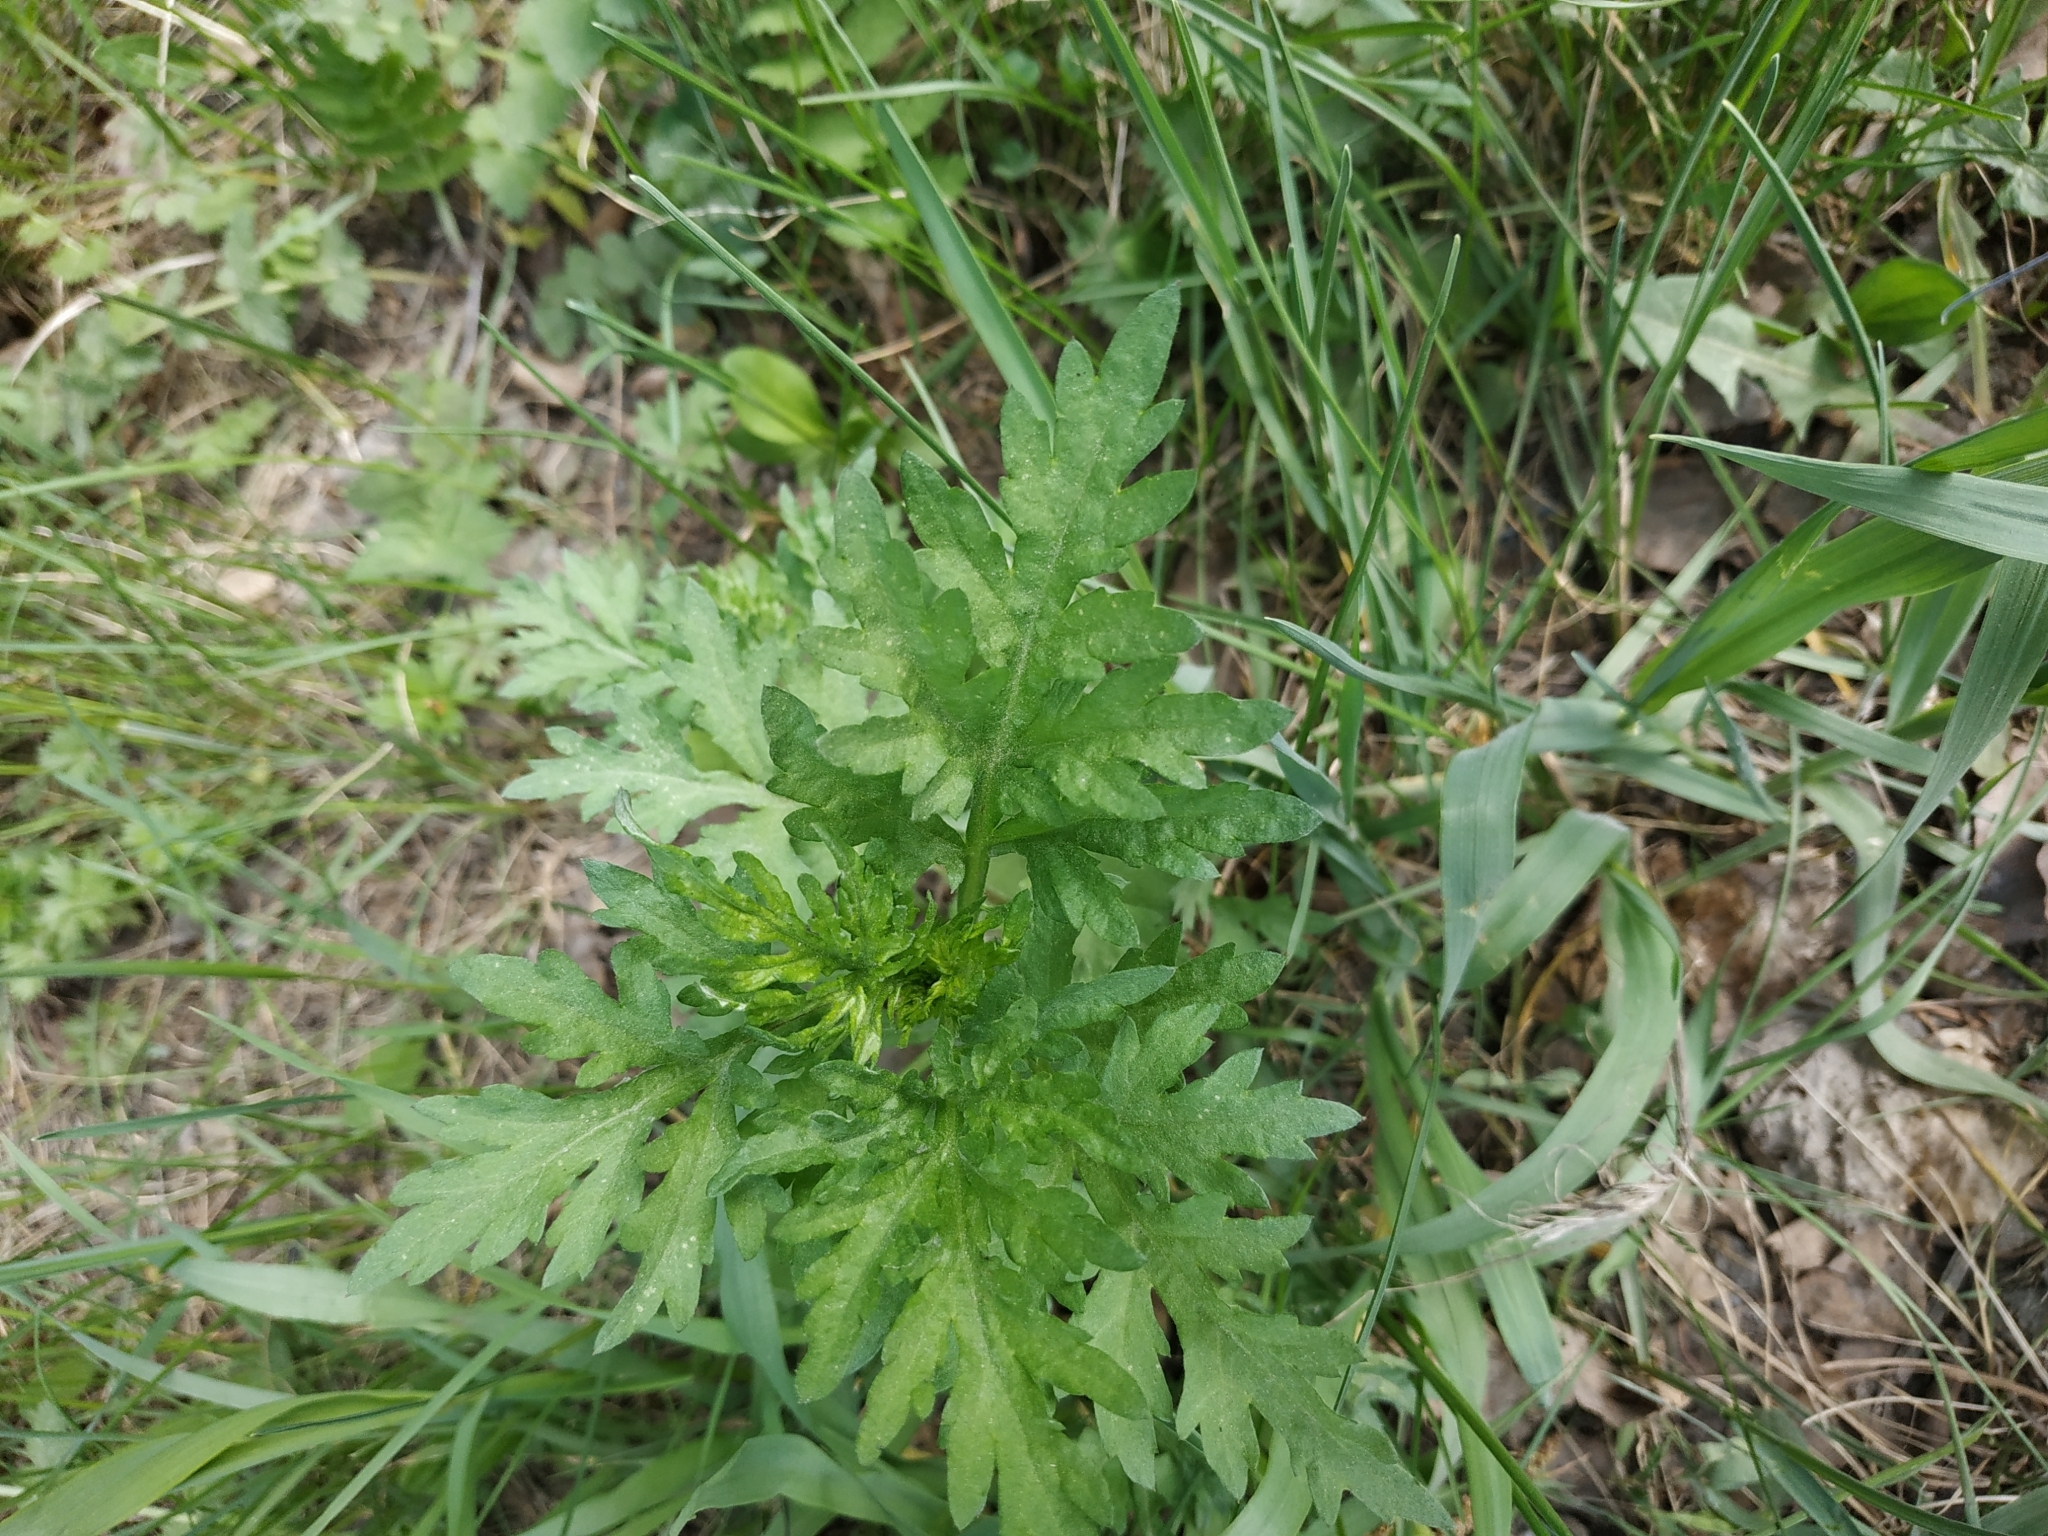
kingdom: Plantae
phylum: Tracheophyta
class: Magnoliopsida
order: Asterales
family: Asteraceae
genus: Artemisia
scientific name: Artemisia vulgaris
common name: Mugwort
